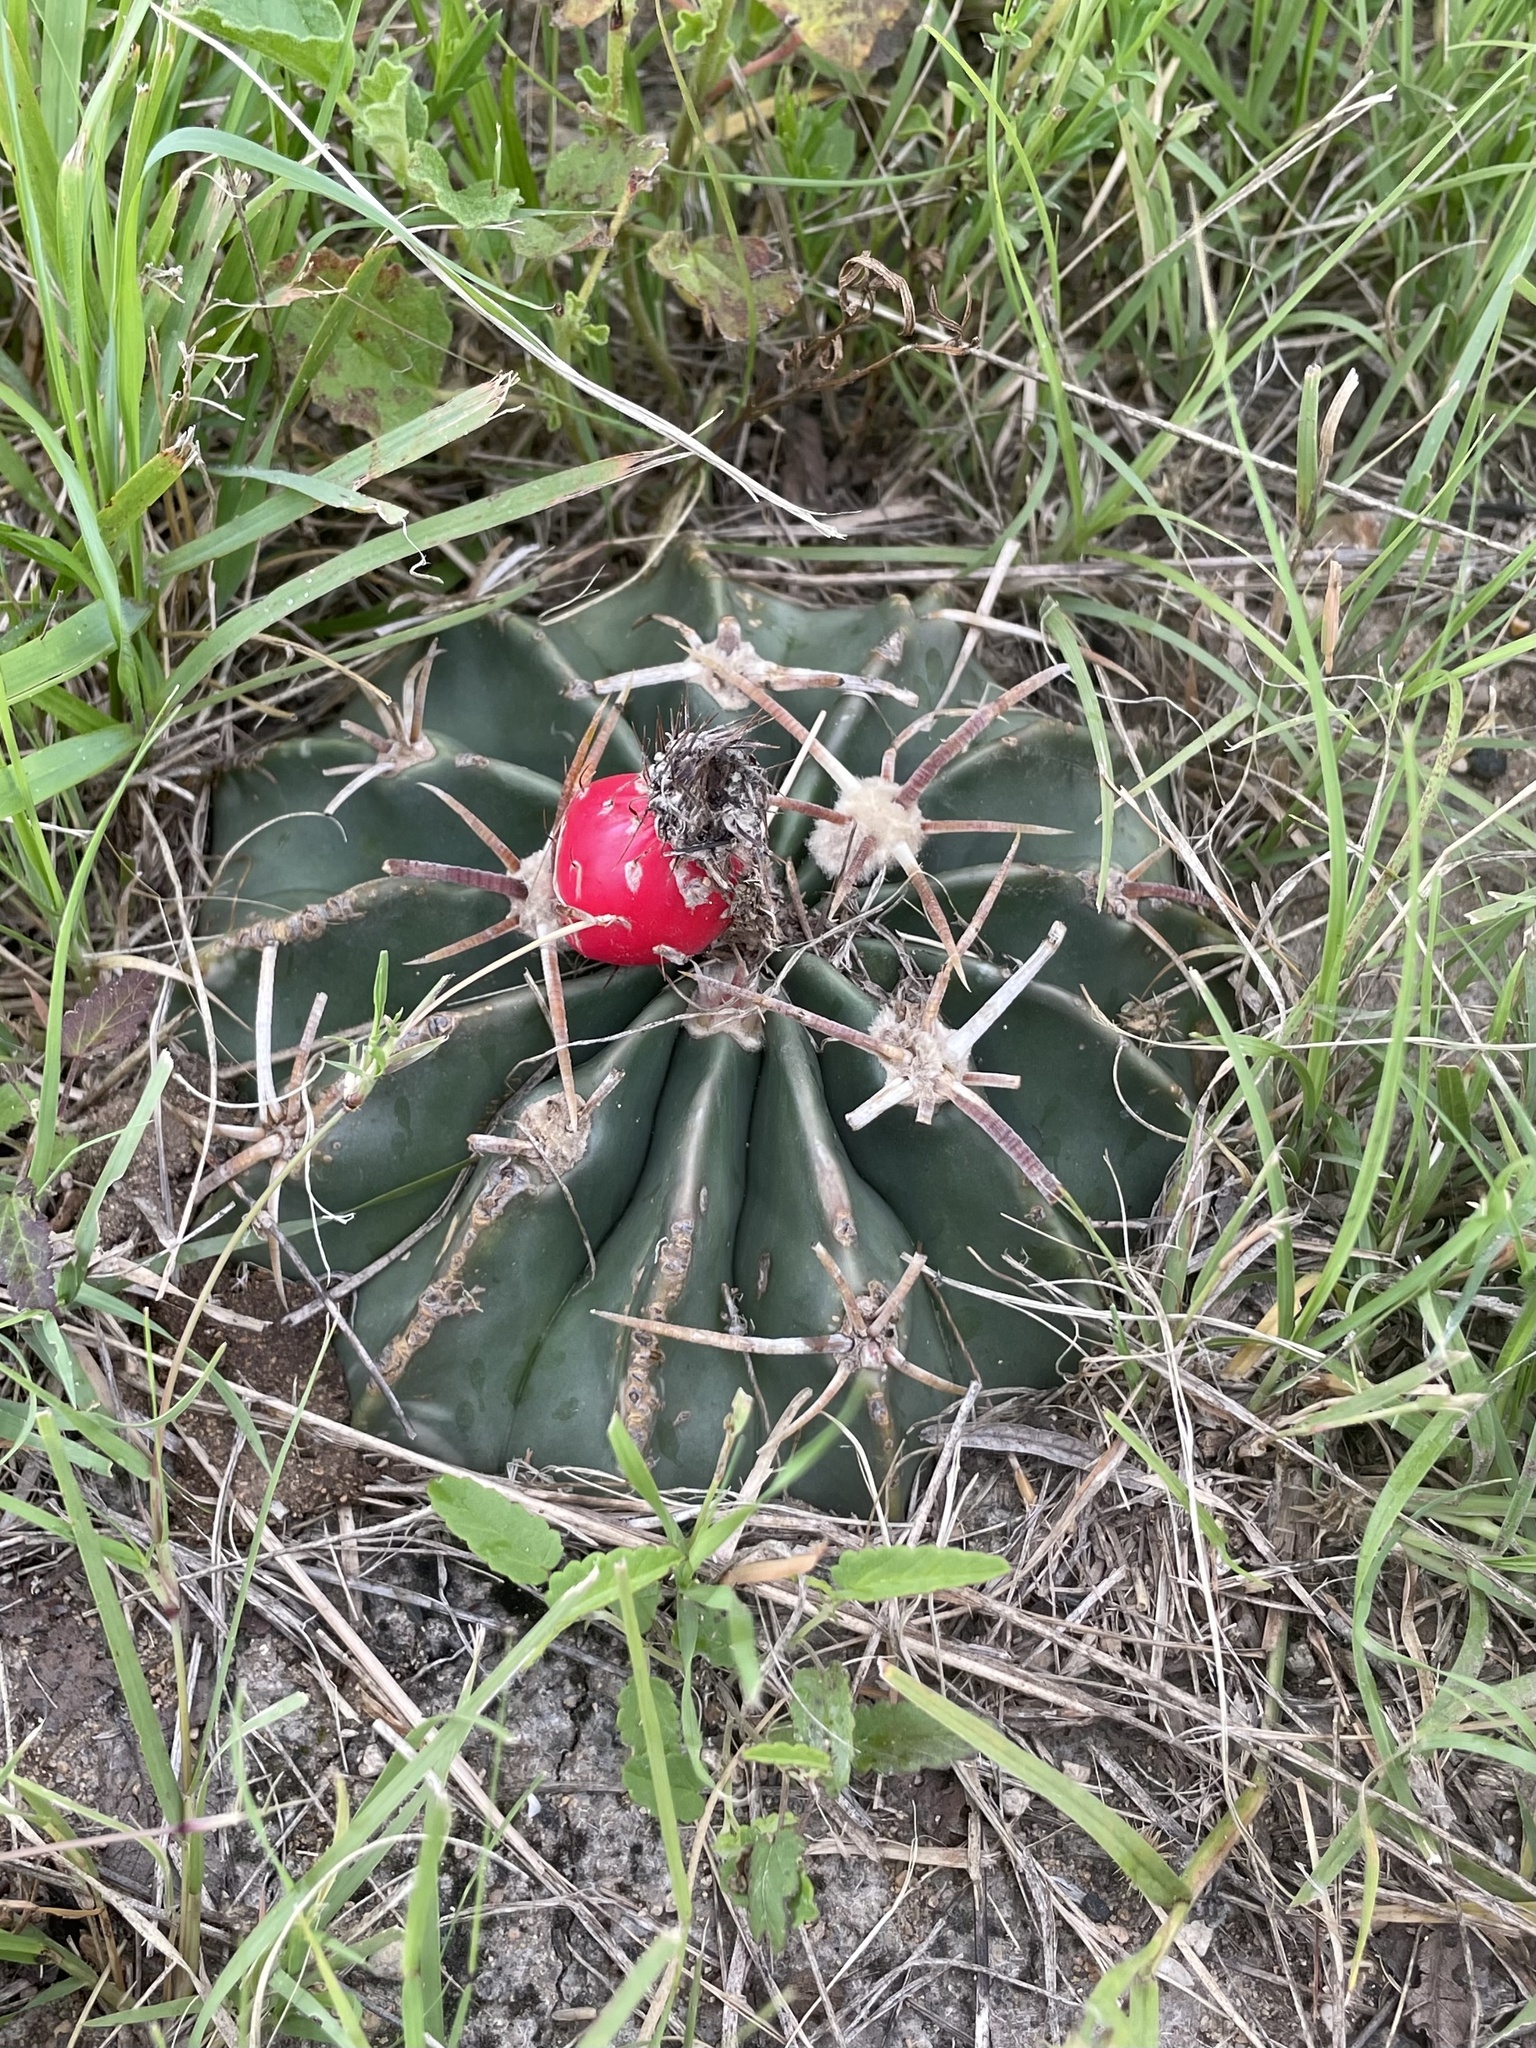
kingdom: Plantae
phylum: Tracheophyta
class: Magnoliopsida
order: Caryophyllales
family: Cactaceae
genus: Echinocactus
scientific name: Echinocactus texensis
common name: Devil's pincushion
